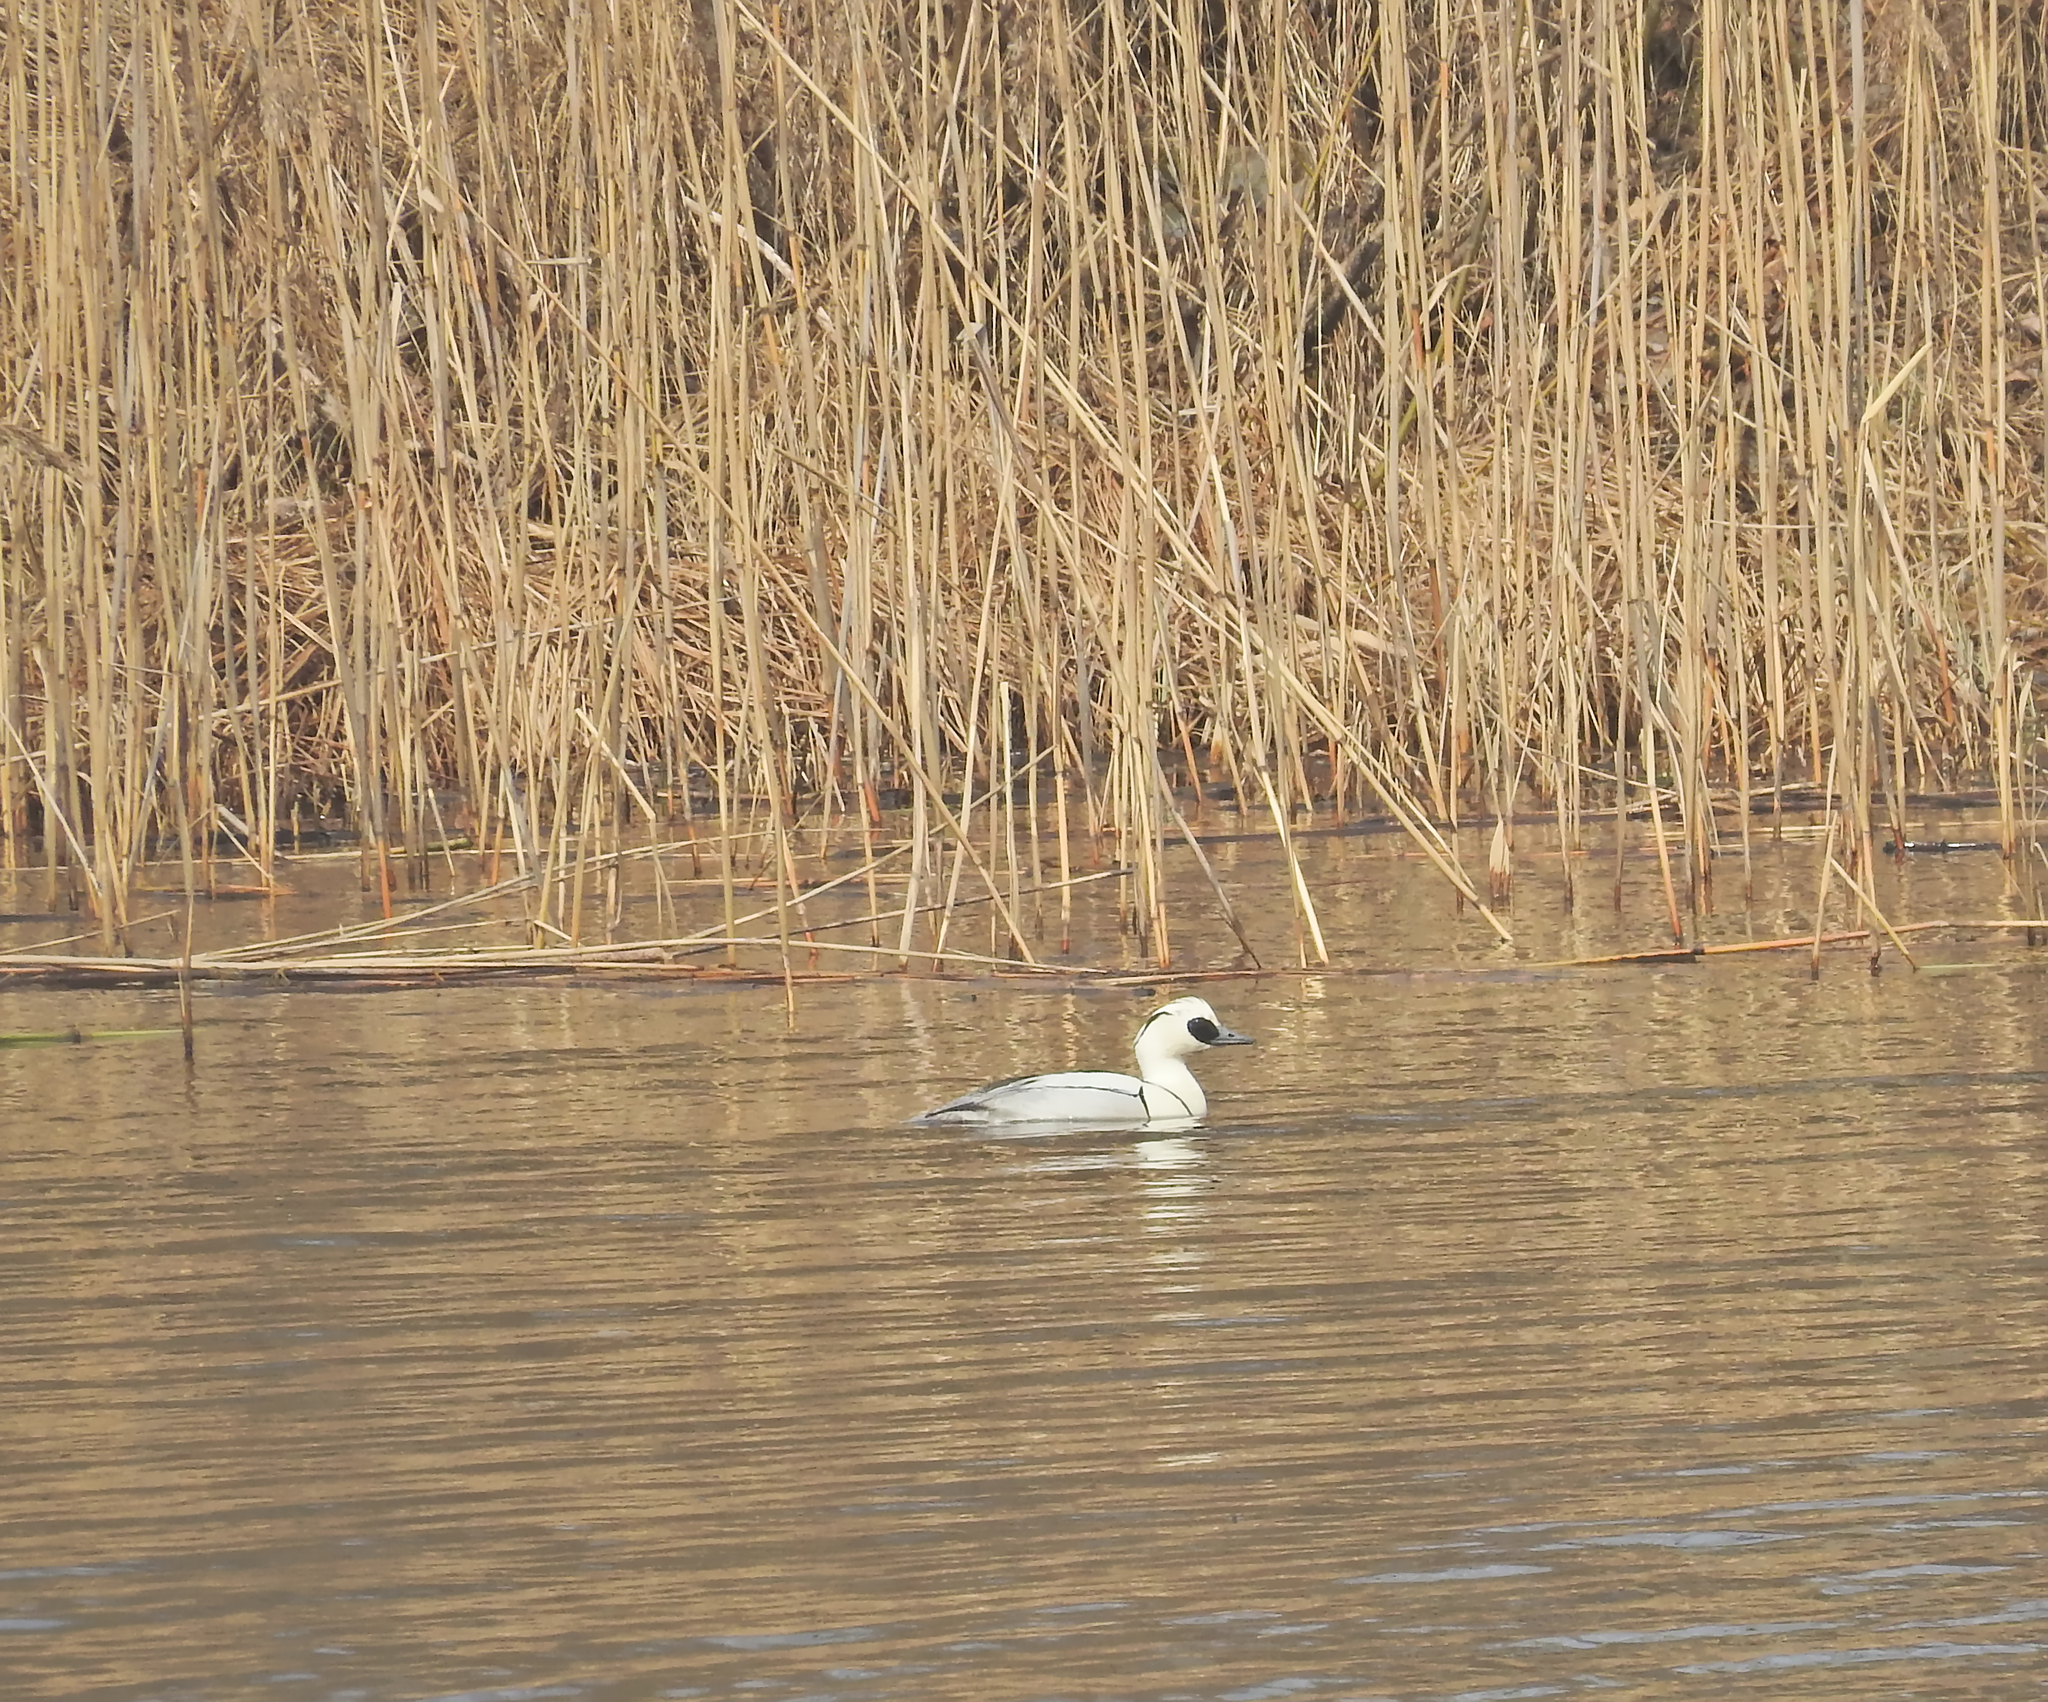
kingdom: Animalia
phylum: Chordata
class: Aves
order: Anseriformes
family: Anatidae
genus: Mergellus
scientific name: Mergellus albellus
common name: Smew
